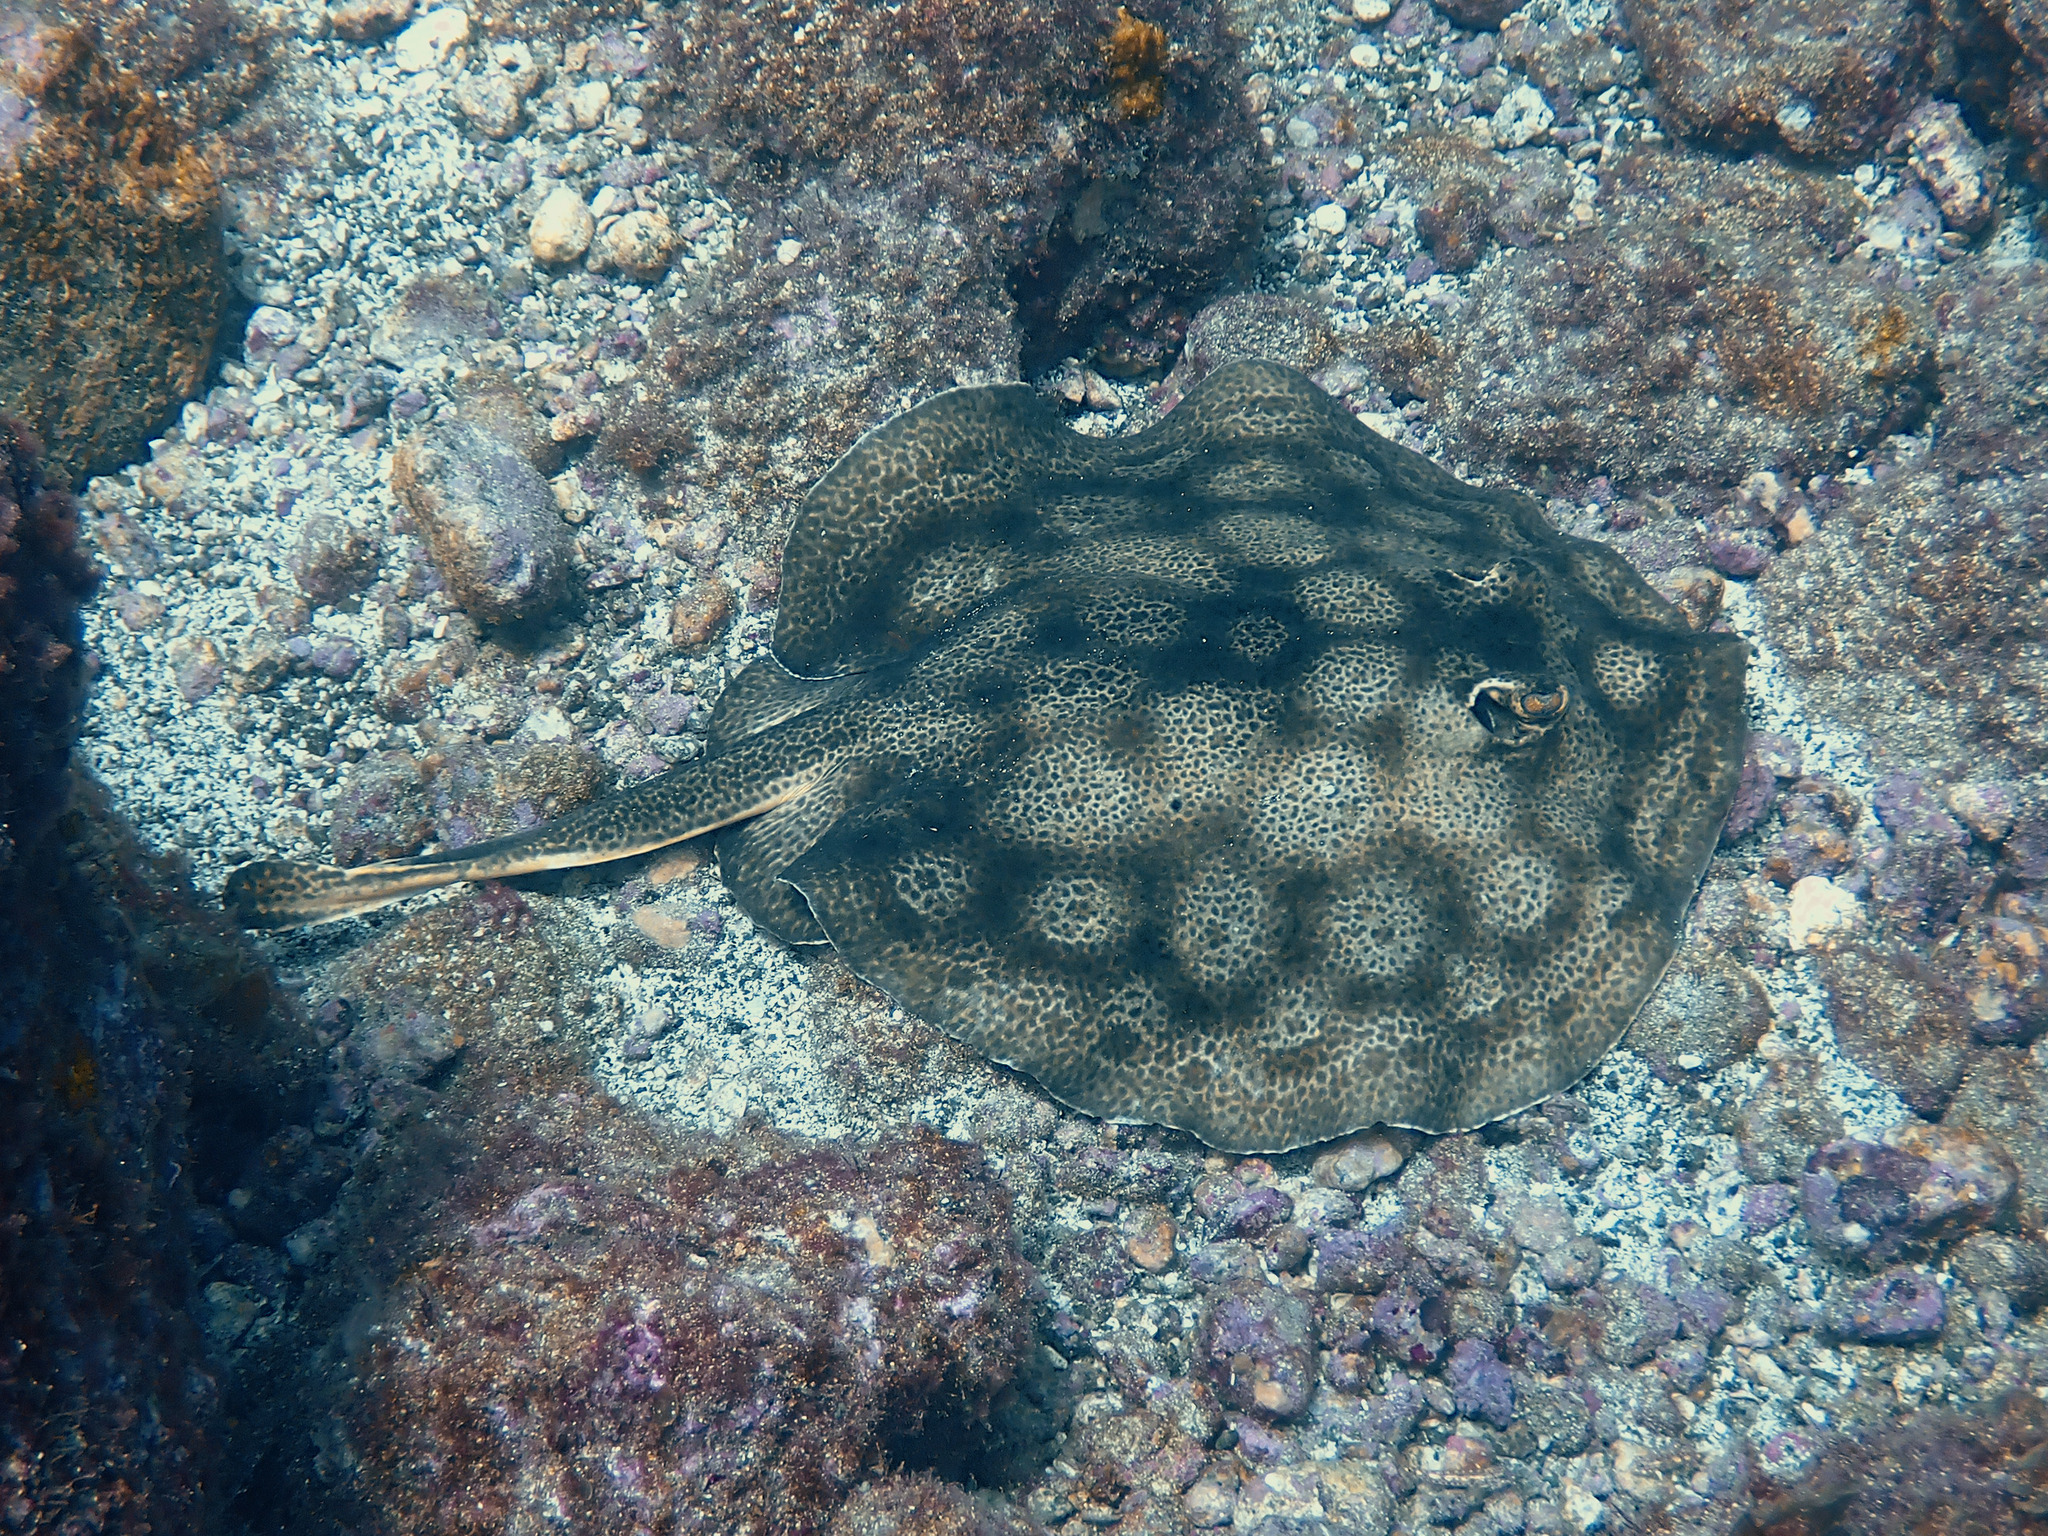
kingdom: Animalia
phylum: Chordata
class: Elasmobranchii
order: Myliobatiformes
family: Urotrygonidae
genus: Urobatis
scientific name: Urobatis pardalis
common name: Leopard round ray
